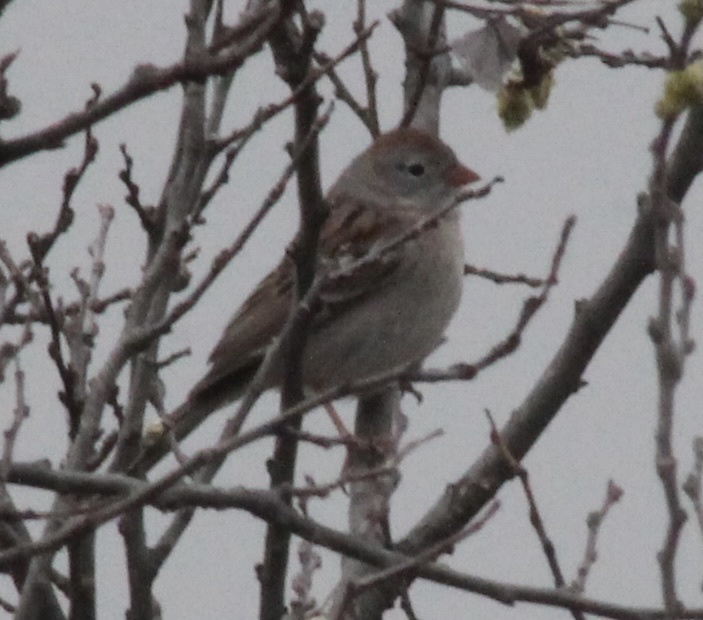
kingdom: Animalia
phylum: Chordata
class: Aves
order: Passeriformes
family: Passerellidae
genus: Spizella
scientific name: Spizella pusilla
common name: Field sparrow
